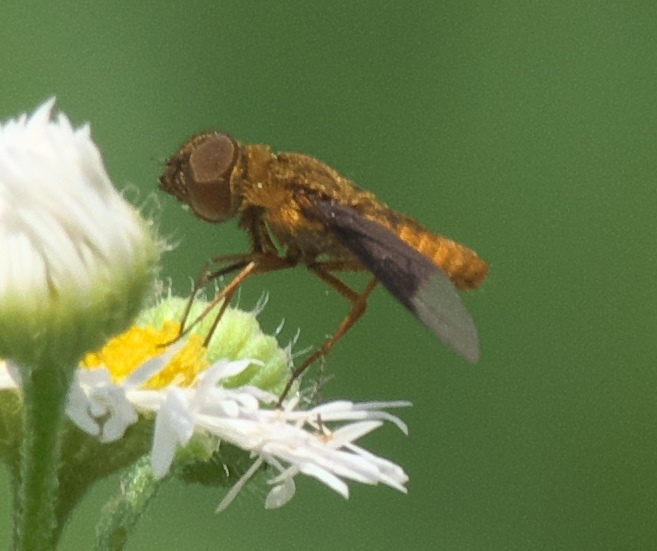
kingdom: Animalia
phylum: Arthropoda
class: Insecta
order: Diptera
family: Bombyliidae
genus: Chrysanthrax
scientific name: Chrysanthrax cypris
